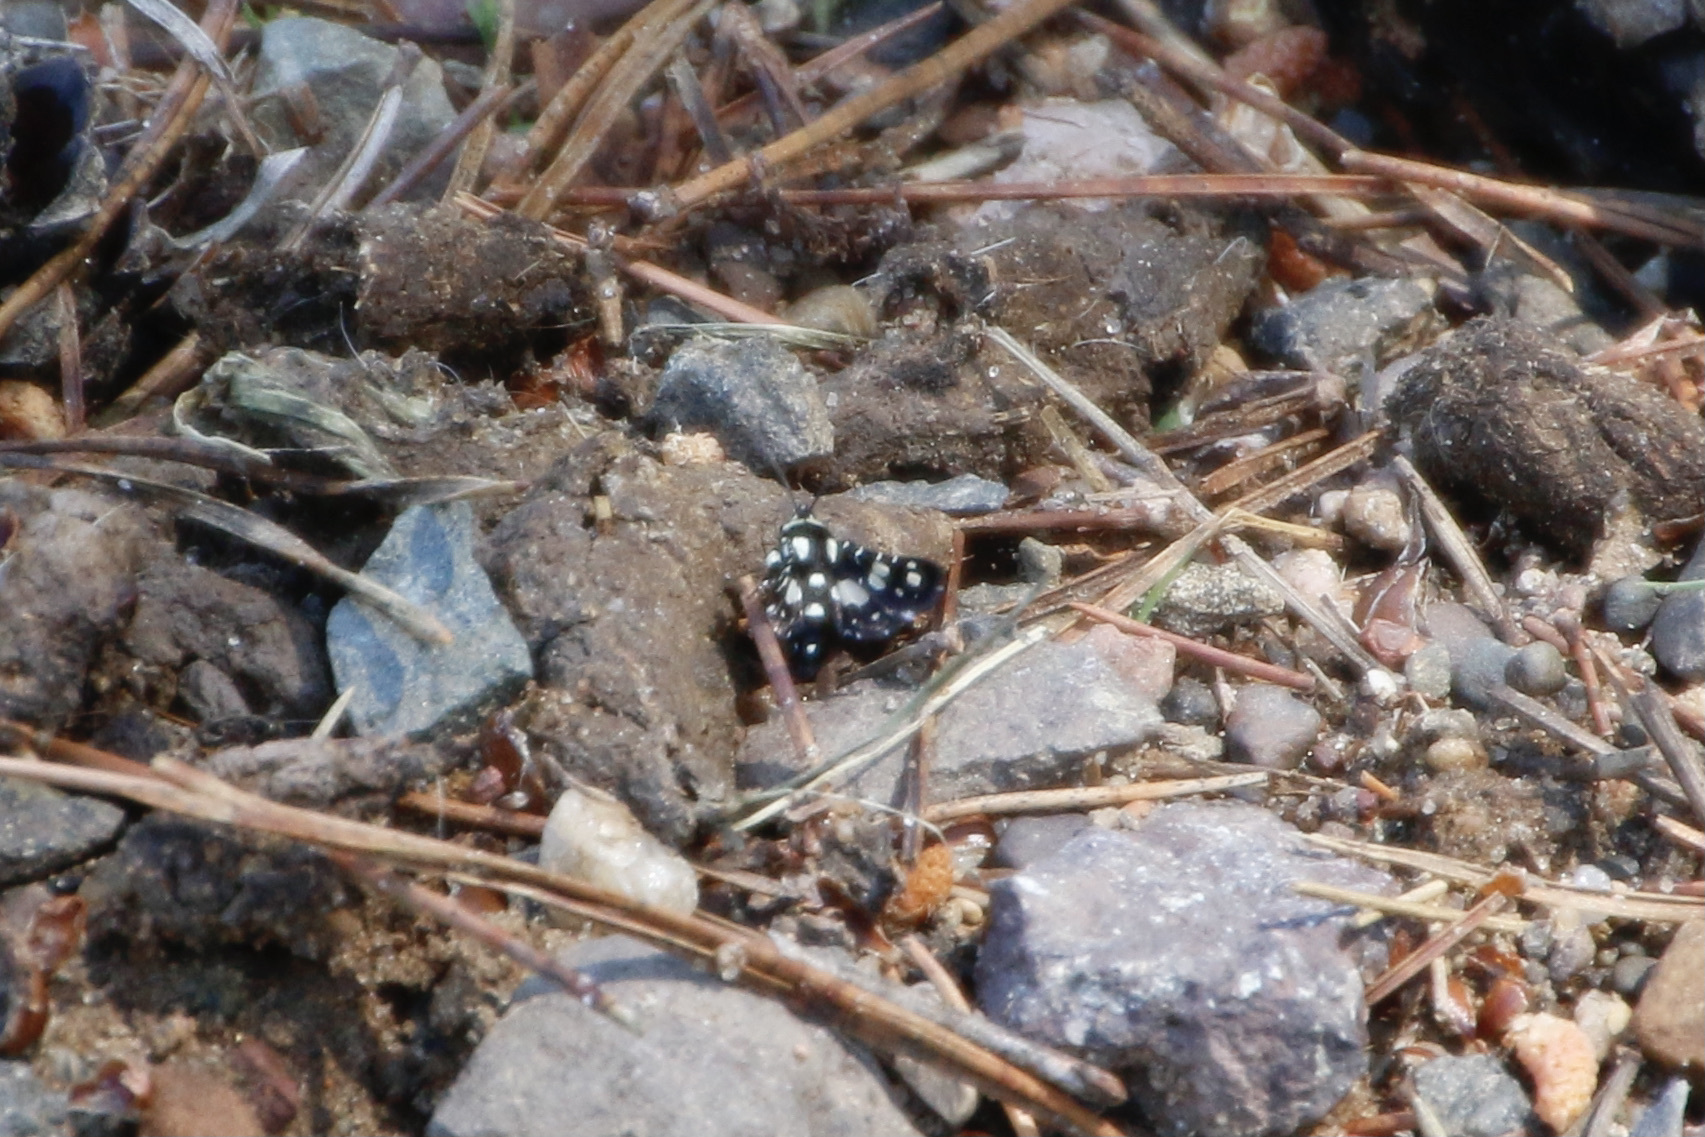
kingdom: Animalia
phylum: Arthropoda
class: Insecta
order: Lepidoptera
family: Thyrididae
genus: Pseudothyris
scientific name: Pseudothyris sepulchralis
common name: Mournful thyris moth
